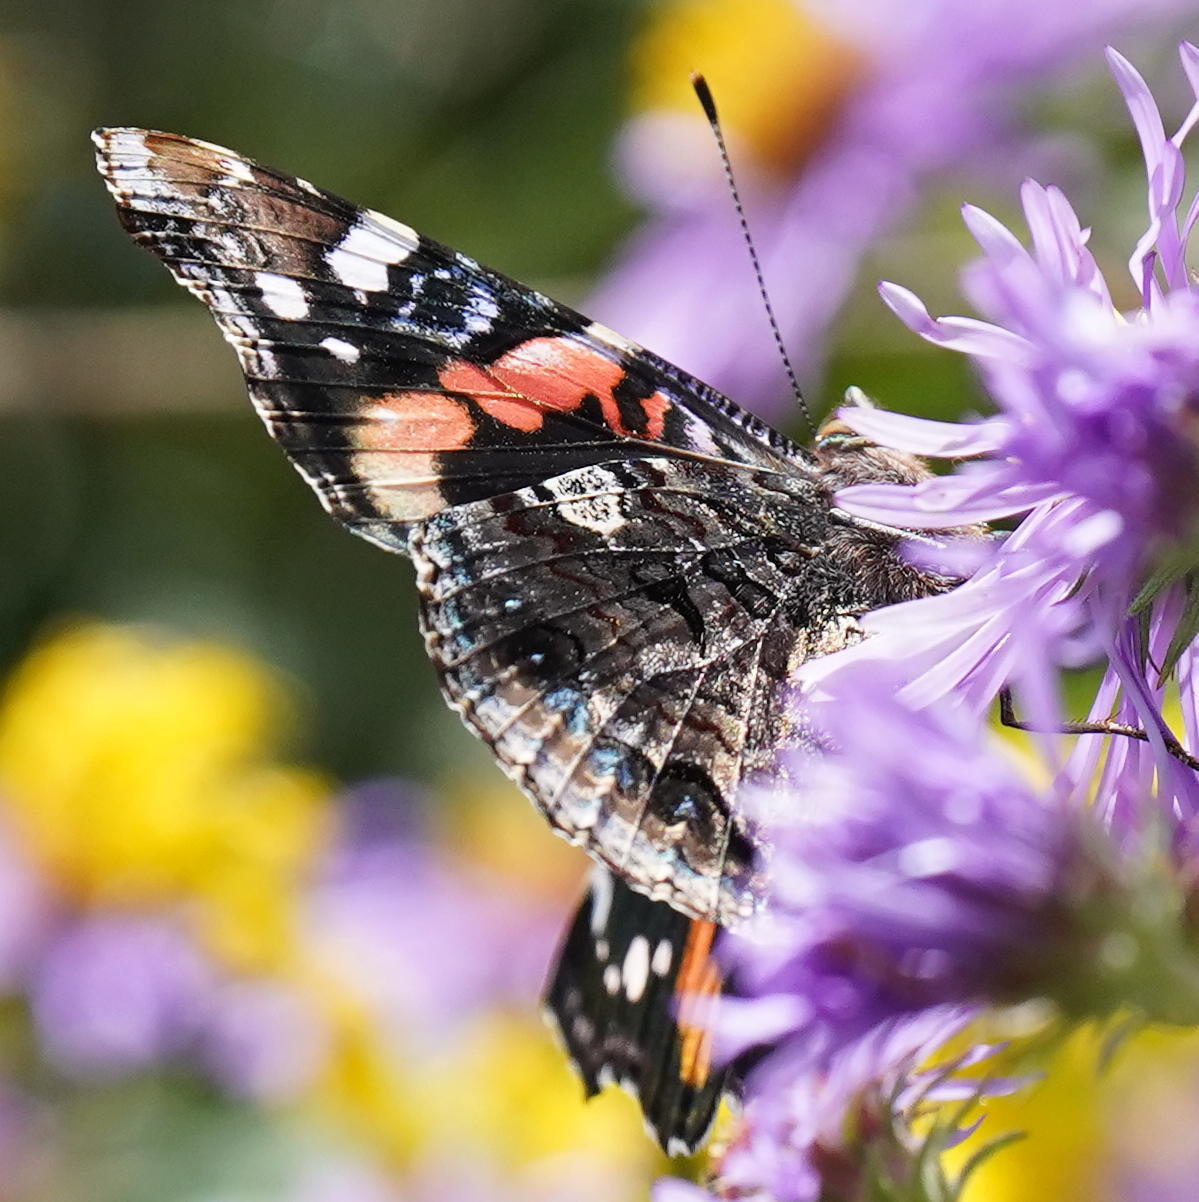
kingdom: Animalia
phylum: Arthropoda
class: Insecta
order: Lepidoptera
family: Nymphalidae
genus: Vanessa
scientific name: Vanessa atalanta
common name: Red admiral
